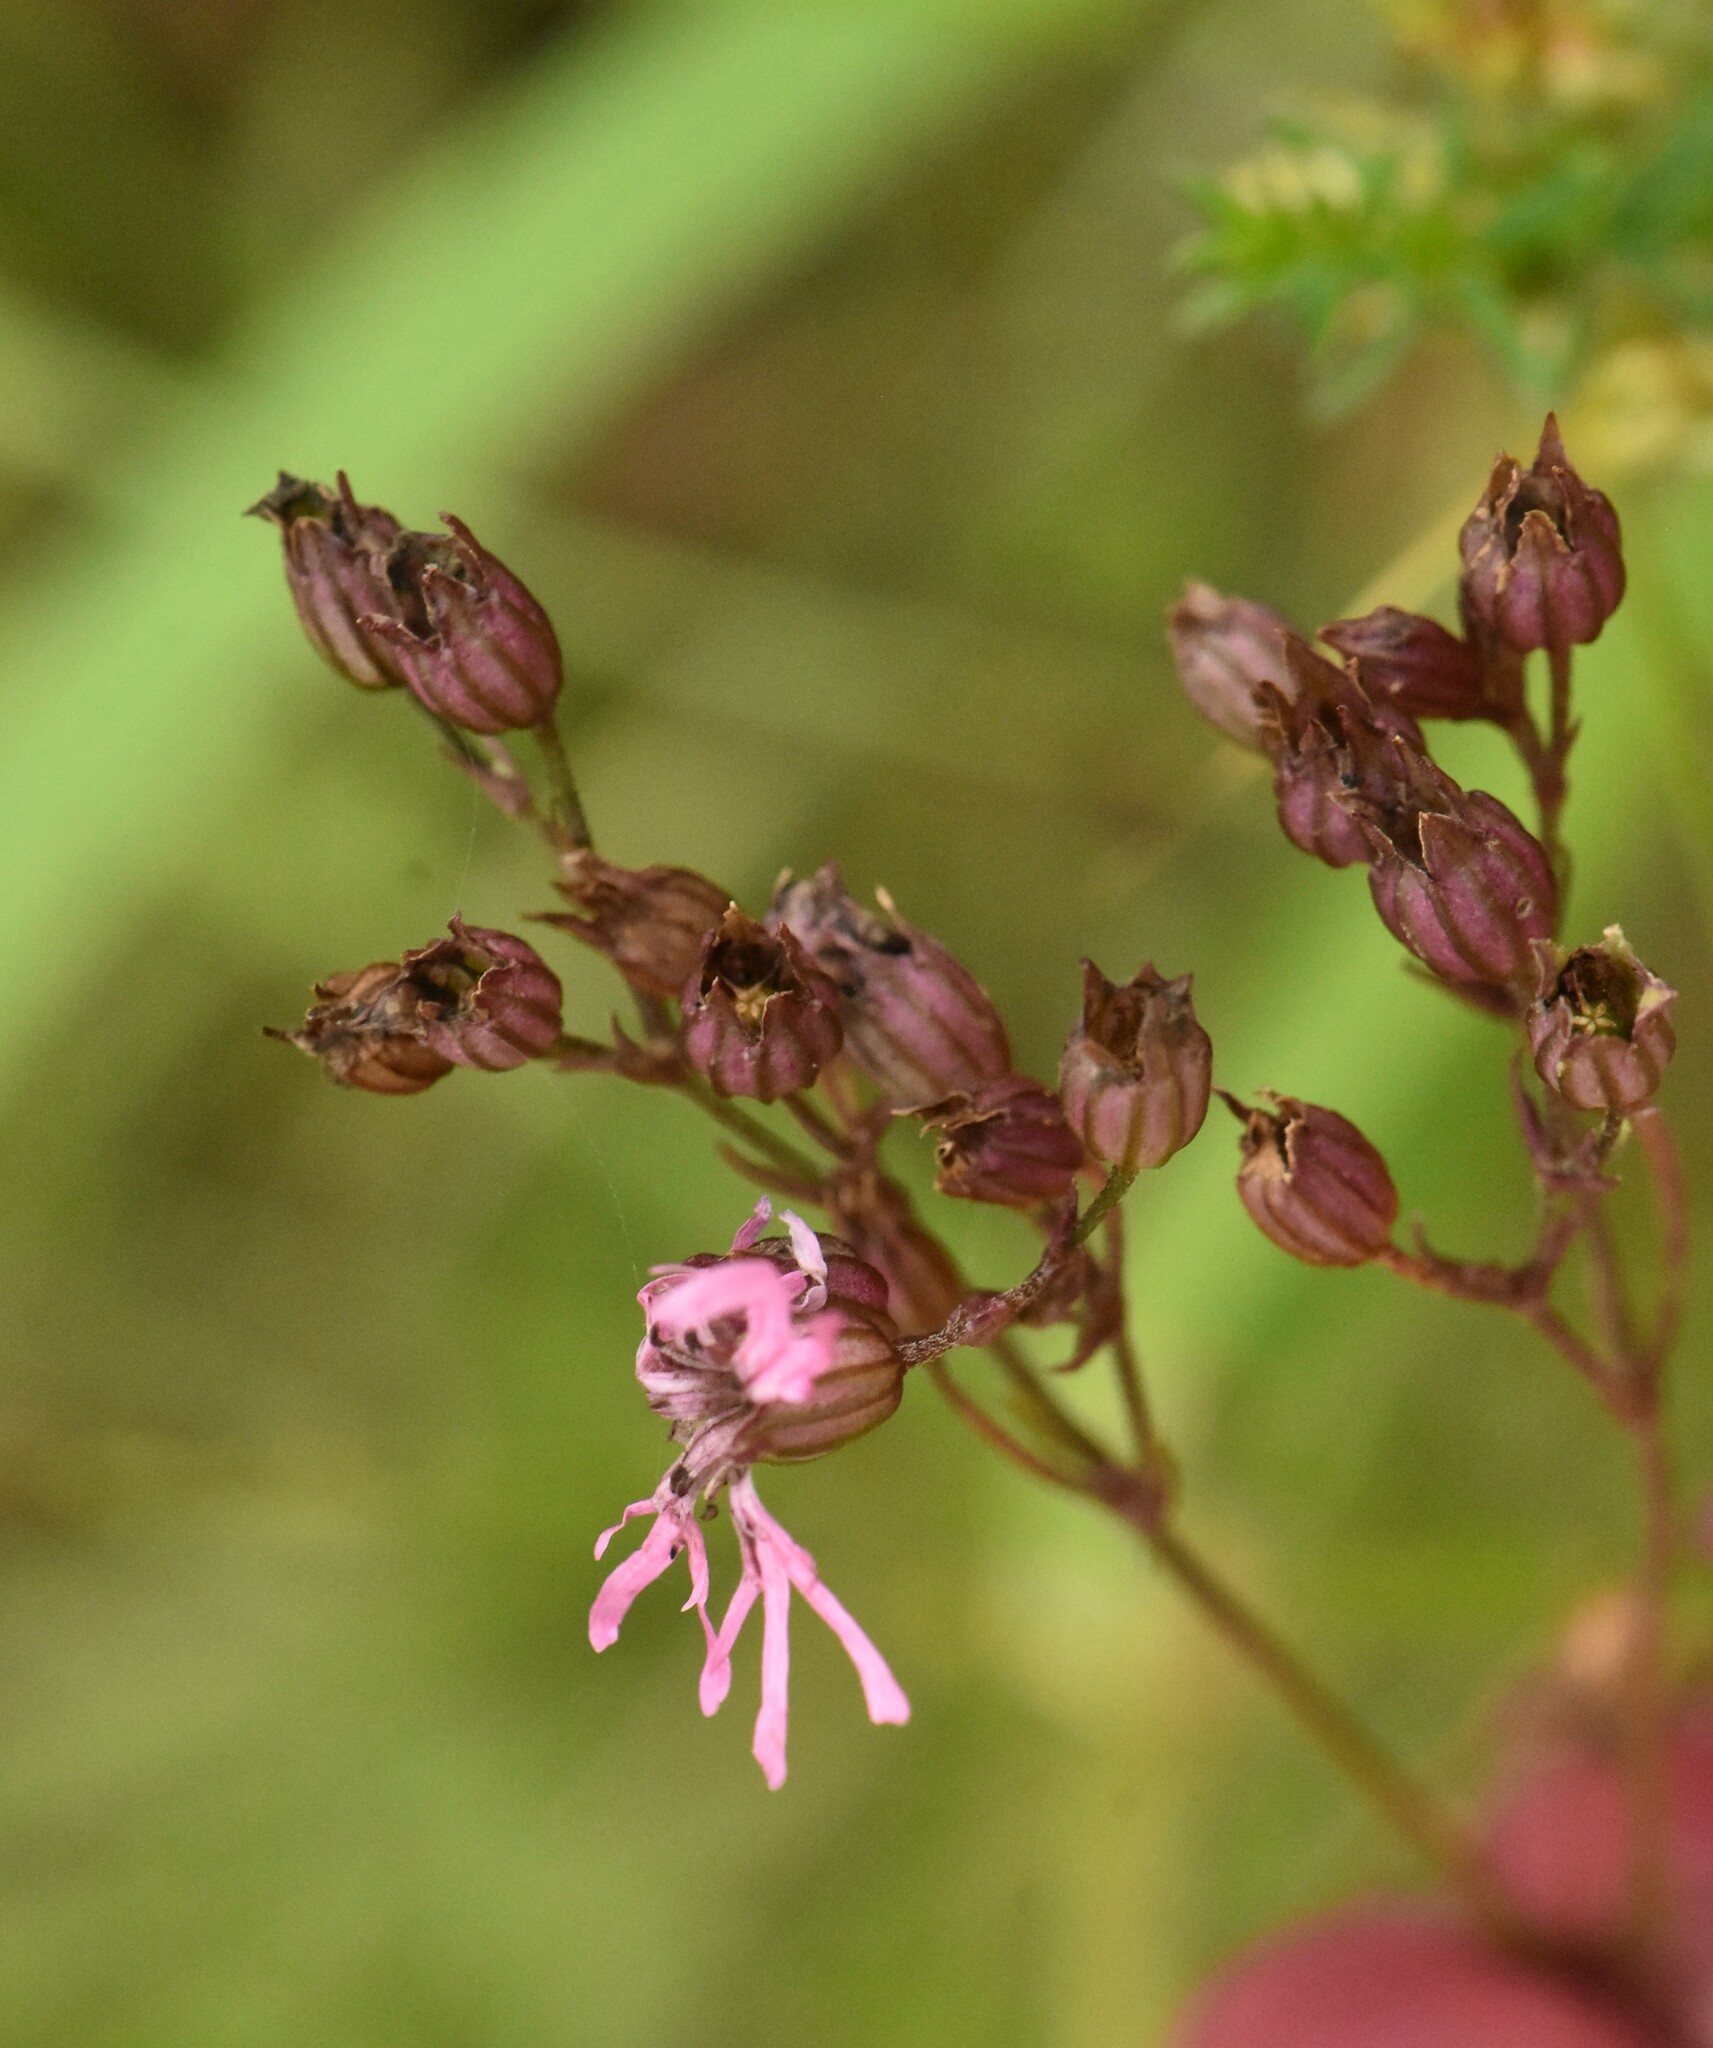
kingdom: Plantae
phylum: Tracheophyta
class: Magnoliopsida
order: Caryophyllales
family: Caryophyllaceae
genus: Silene
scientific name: Silene flos-cuculi
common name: Ragged-robin
